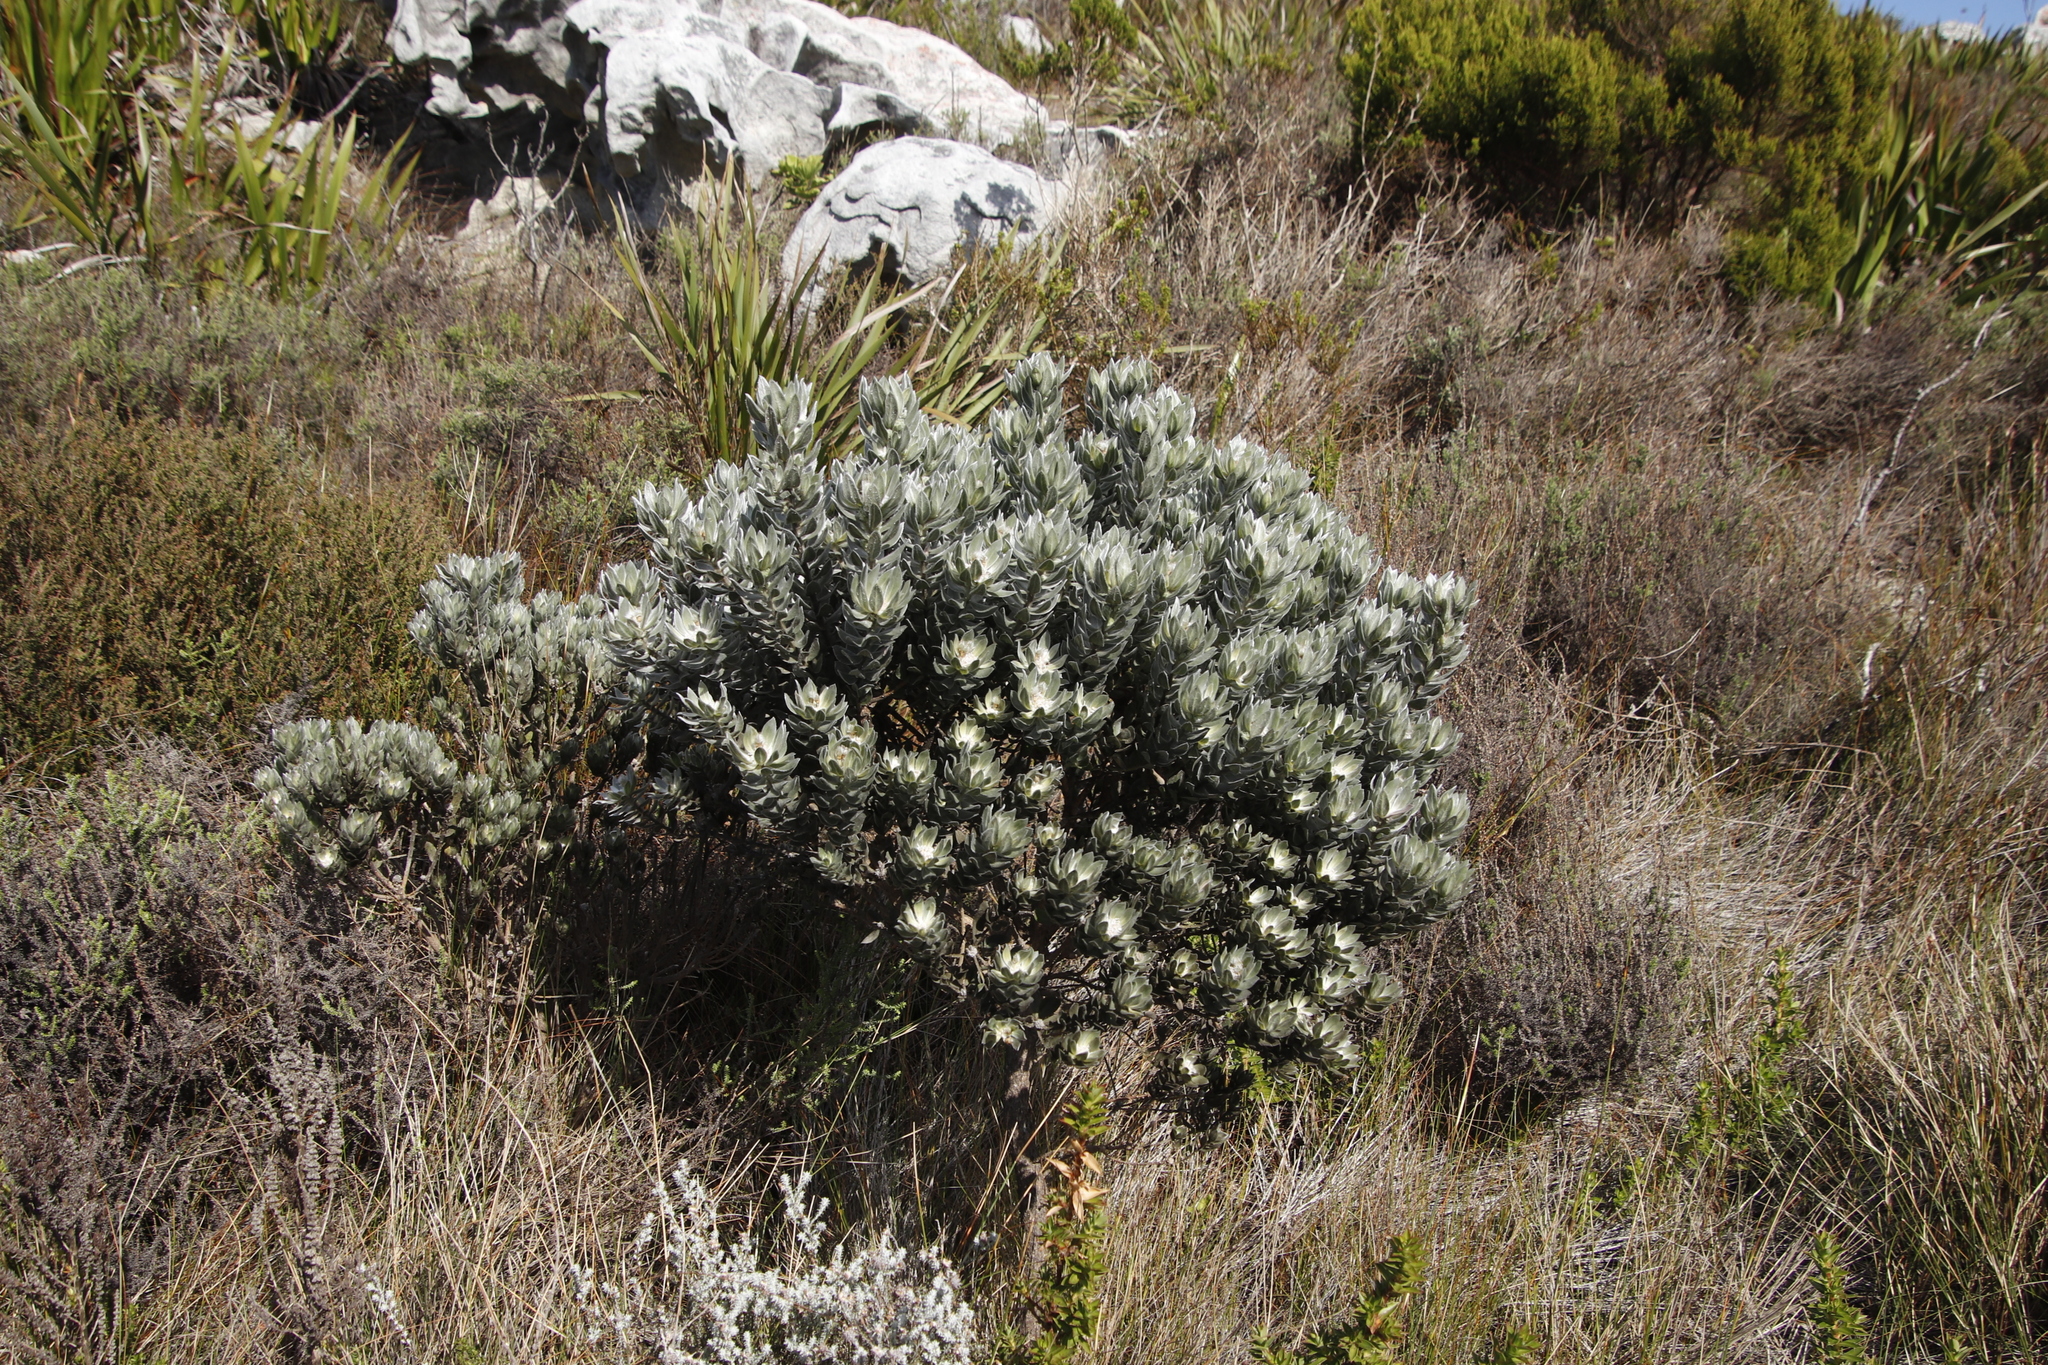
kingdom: Plantae
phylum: Tracheophyta
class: Magnoliopsida
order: Fabales
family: Fabaceae
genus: Xiphotheca
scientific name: Xiphotheca fruticosa
